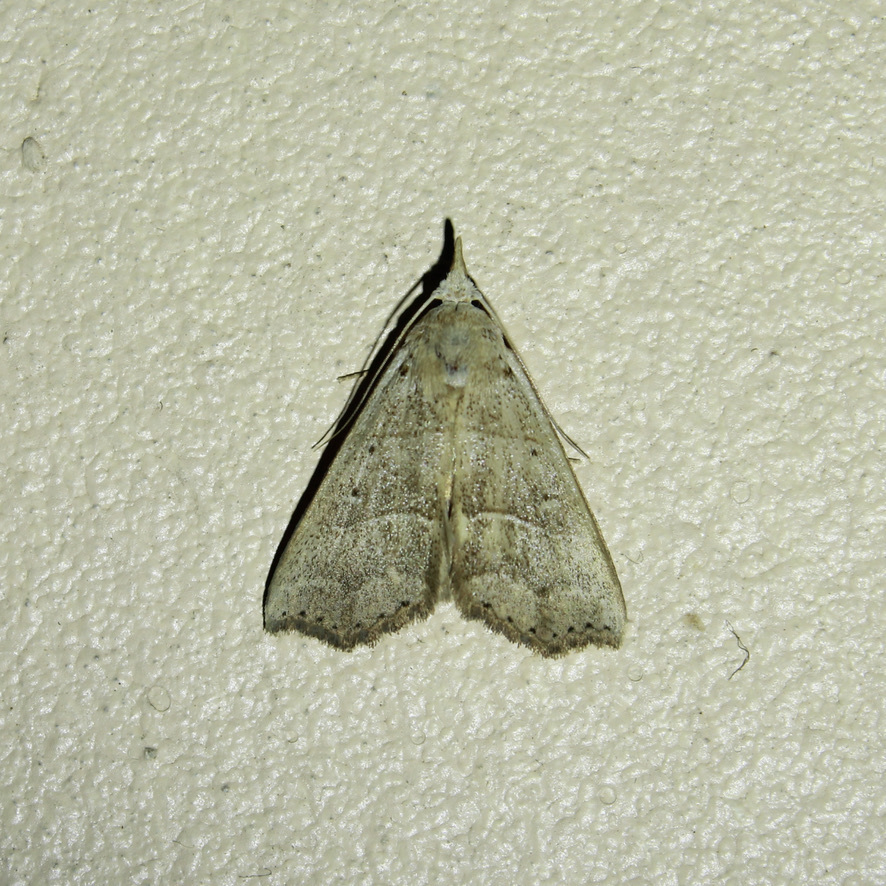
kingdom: Animalia
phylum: Arthropoda
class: Insecta
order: Lepidoptera
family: Erebidae
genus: Hyamia
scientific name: Hyamia Ensipia trilineata
